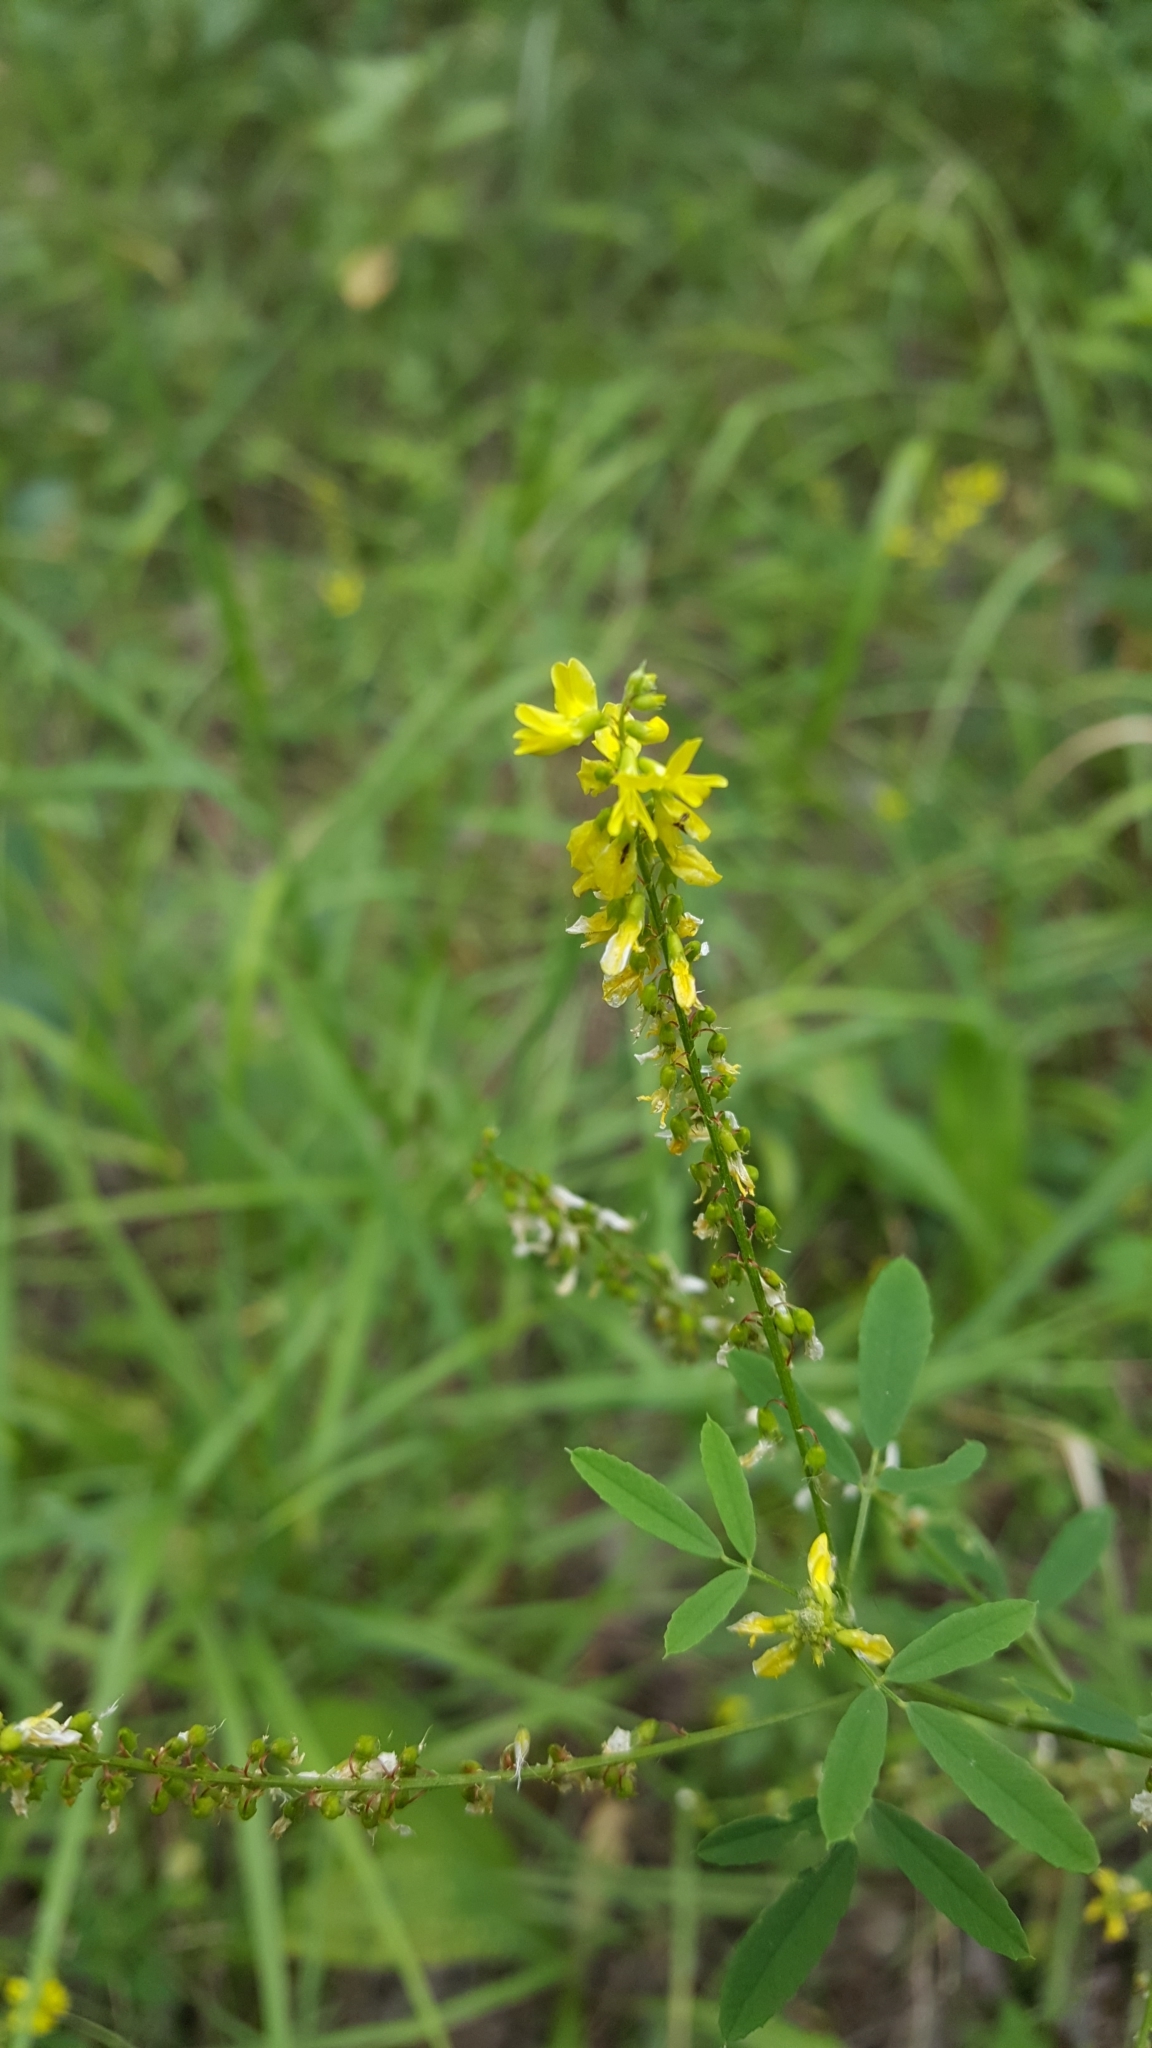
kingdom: Plantae
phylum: Tracheophyta
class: Magnoliopsida
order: Fabales
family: Fabaceae
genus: Melilotus
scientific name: Melilotus officinalis
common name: Sweetclover
